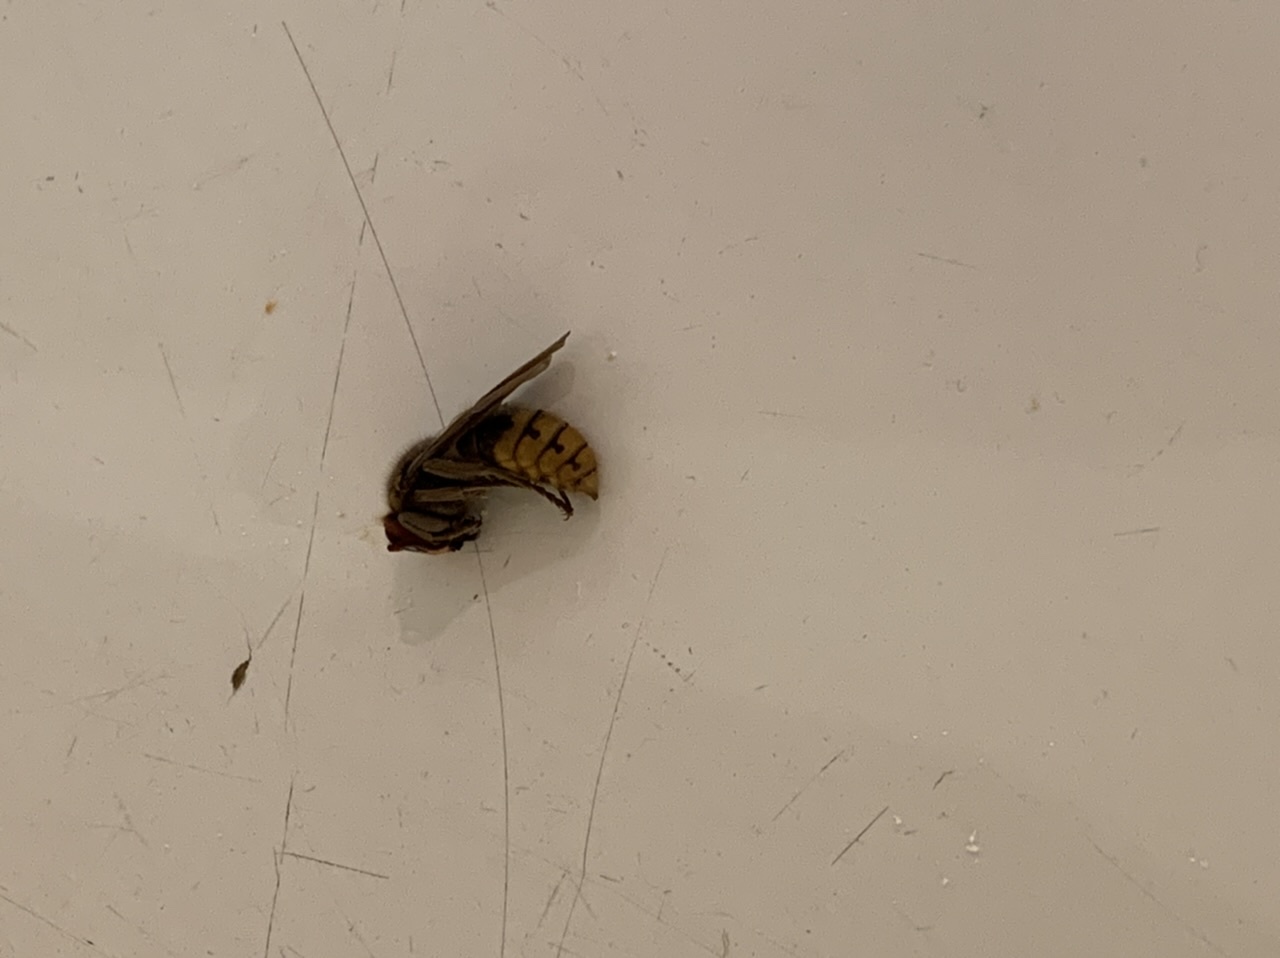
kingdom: Animalia
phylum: Arthropoda
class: Insecta
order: Hymenoptera
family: Vespidae
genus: Vespa
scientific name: Vespa crabro
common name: Hornet
